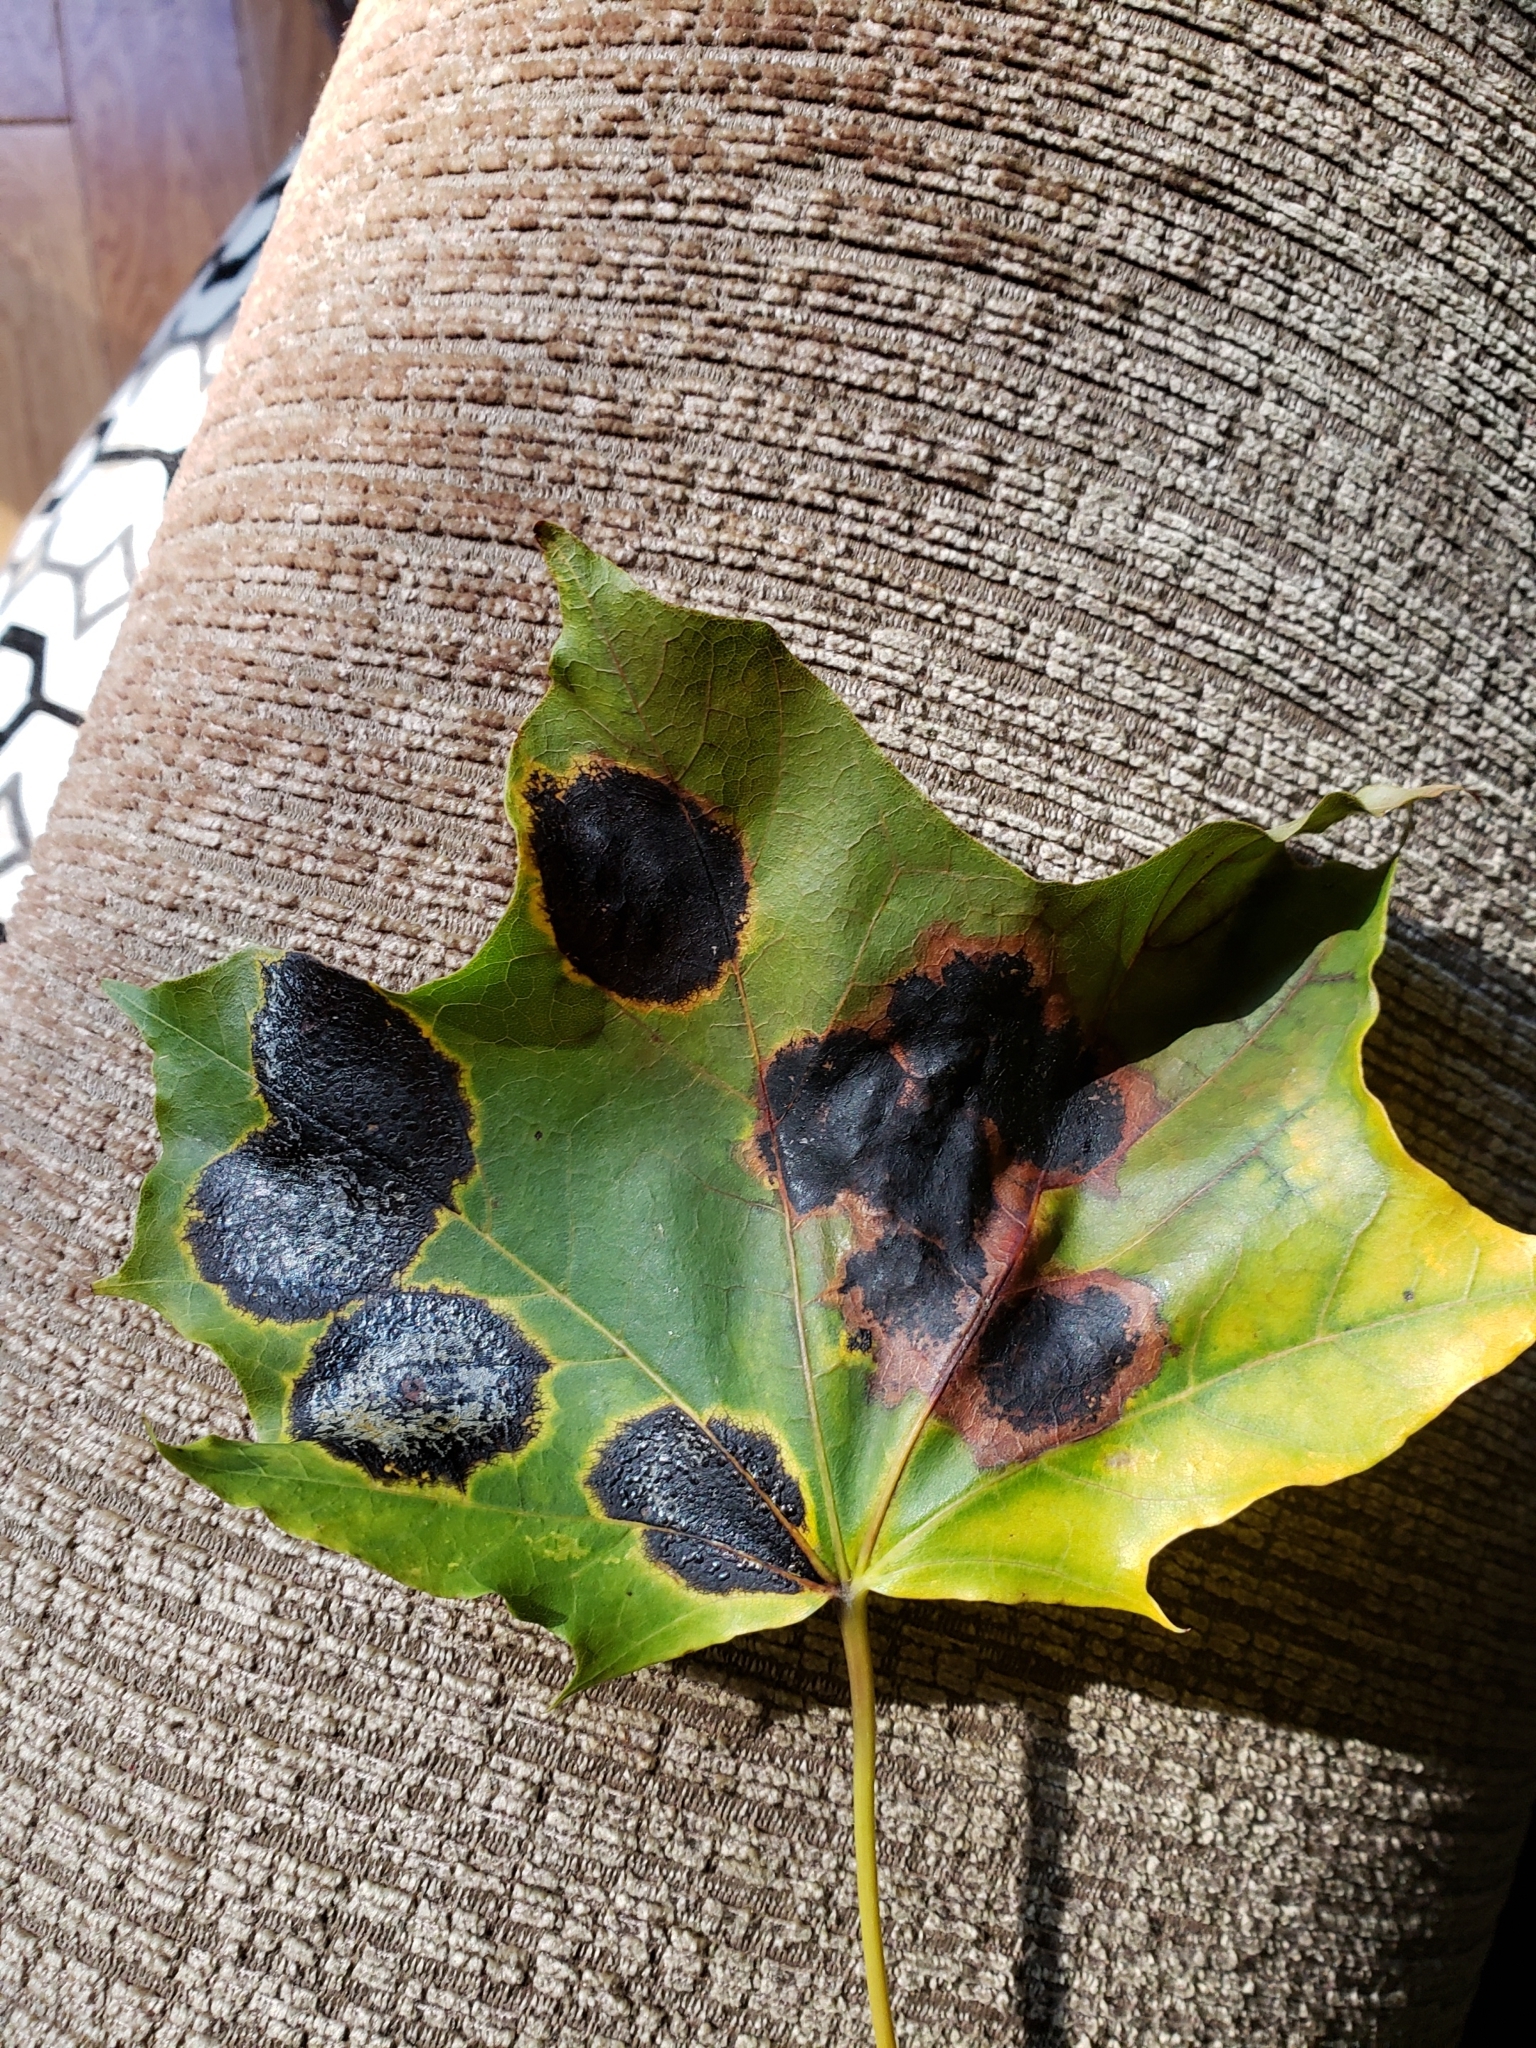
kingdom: Fungi
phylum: Ascomycota
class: Leotiomycetes
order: Rhytismatales
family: Rhytismataceae
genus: Rhytisma
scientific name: Rhytisma acerinum
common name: European tar spot
